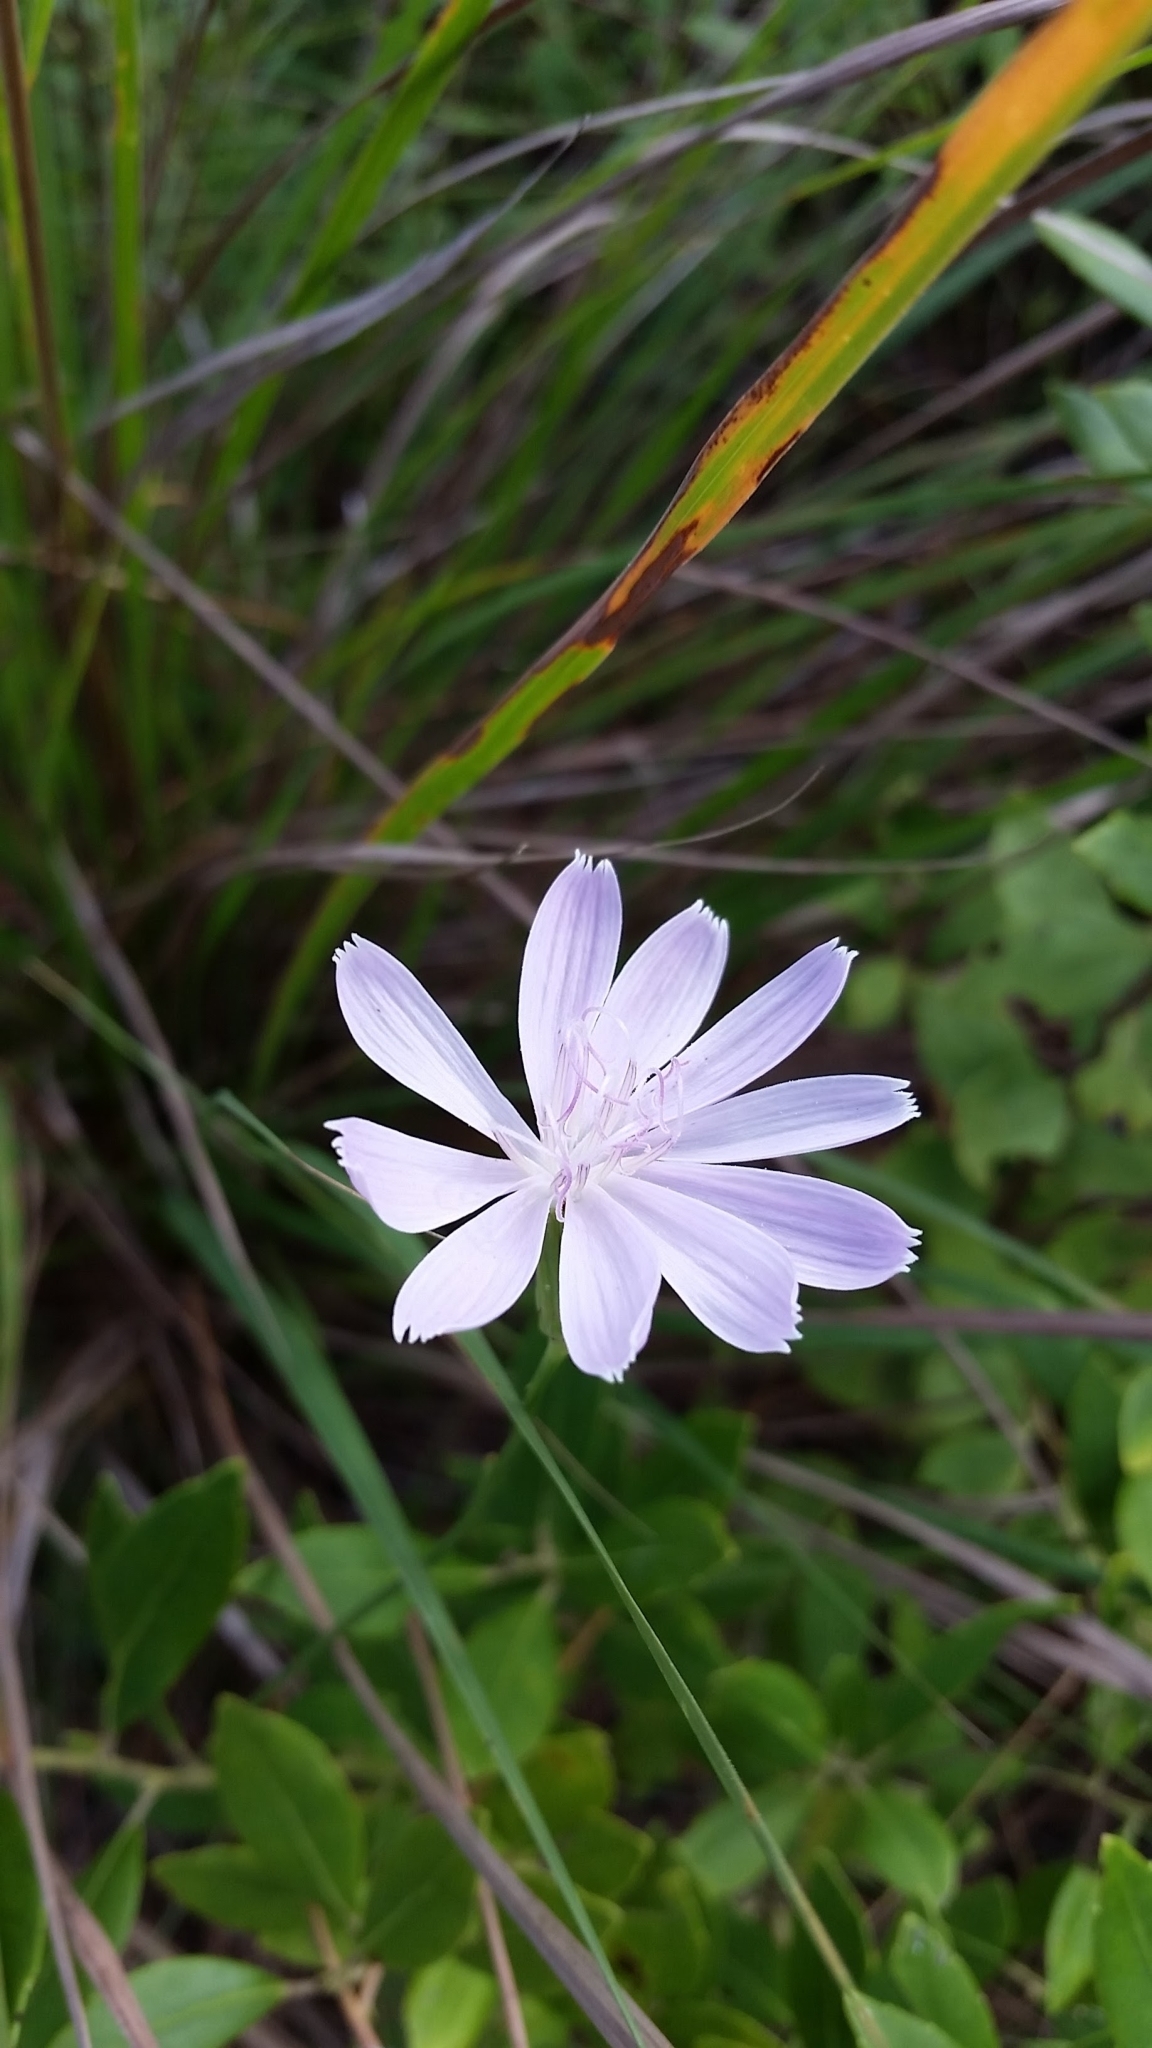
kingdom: Plantae
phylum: Tracheophyta
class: Magnoliopsida
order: Asterales
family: Asteraceae
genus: Lygodesmia
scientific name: Lygodesmia aphylla
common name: Rose-rush
